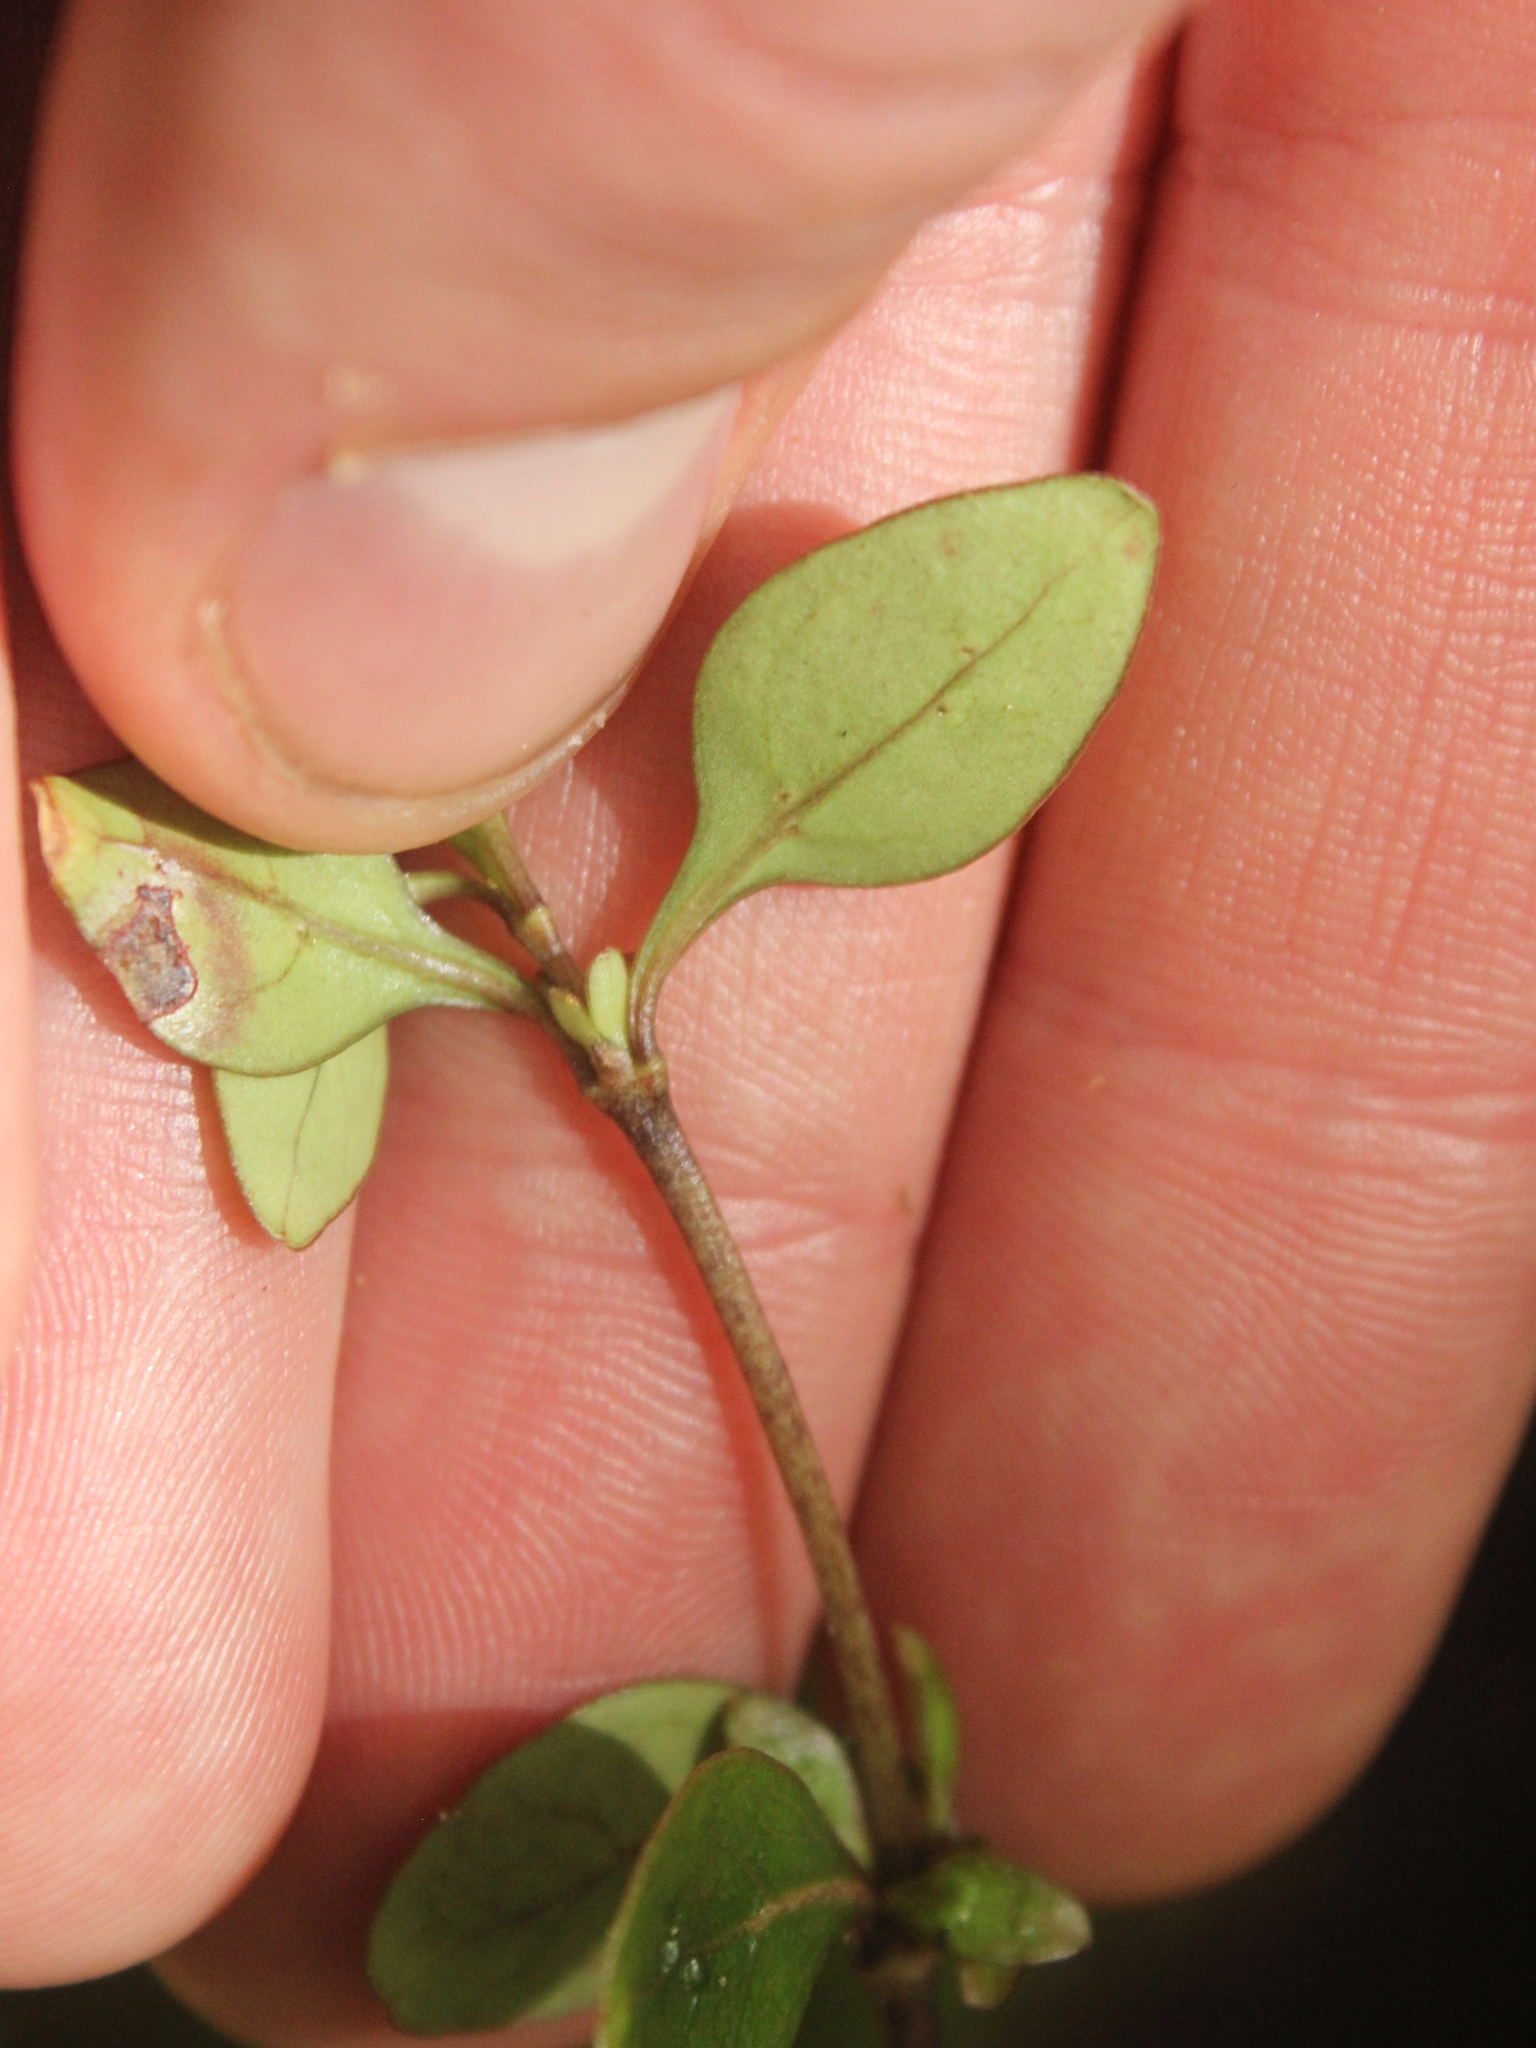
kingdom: Plantae
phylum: Tracheophyta
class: Magnoliopsida
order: Gentianales
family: Rubiaceae
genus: Coprosma
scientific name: Coprosma colensoi
